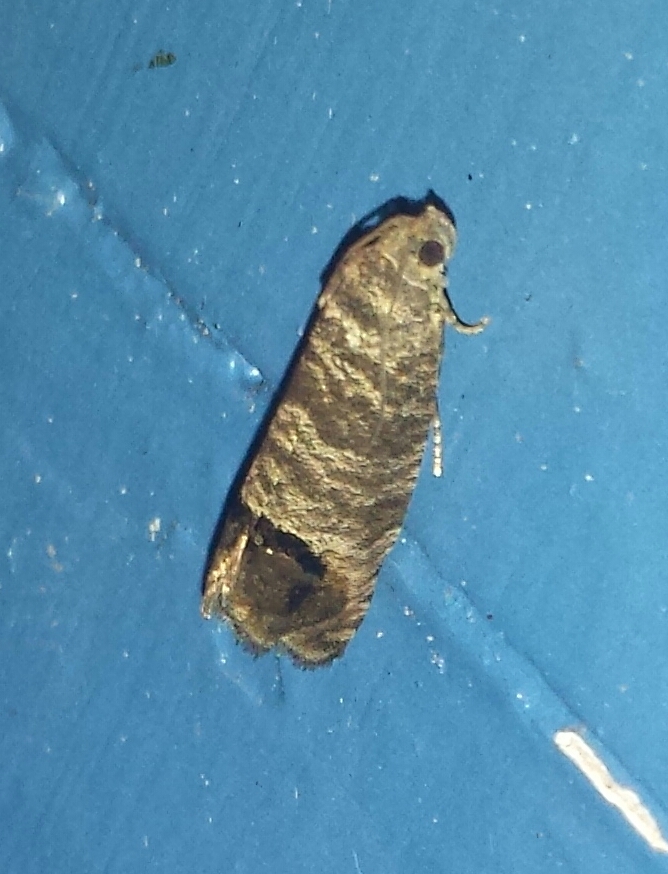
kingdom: Animalia
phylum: Arthropoda
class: Insecta
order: Lepidoptera
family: Tortricidae
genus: Cydia
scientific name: Cydia pomonella
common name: Codling moth
